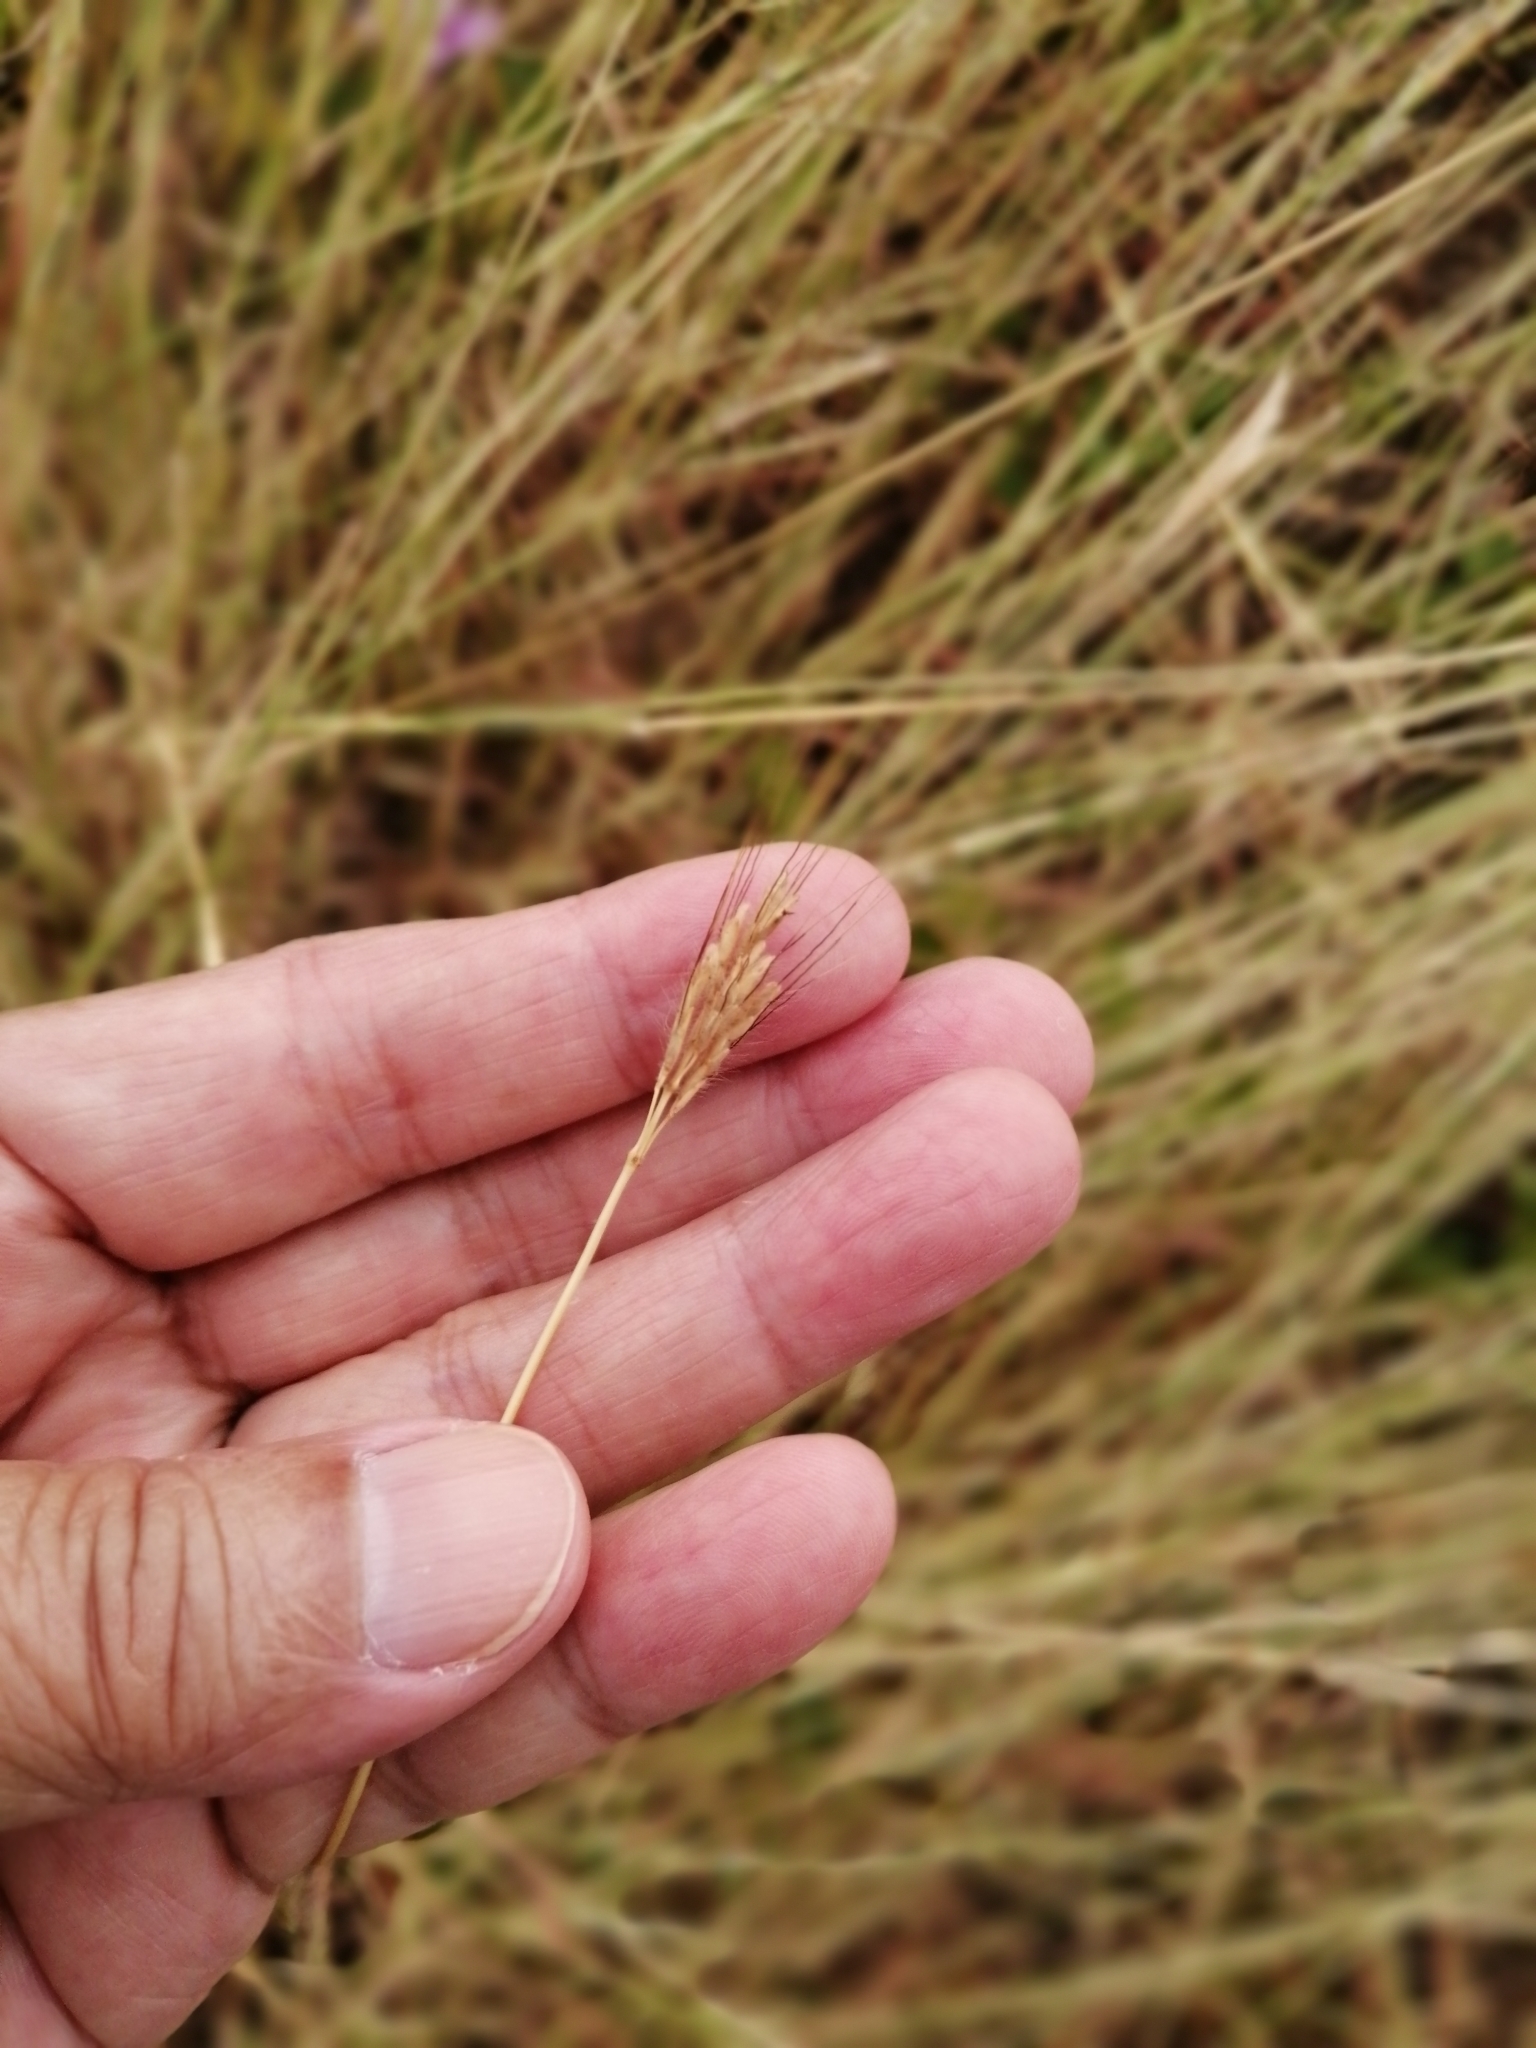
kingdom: Plantae
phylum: Tracheophyta
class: Liliopsida
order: Poales
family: Poaceae
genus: Dichanthium
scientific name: Dichanthium annulatum
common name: Kleberg's bluestem
